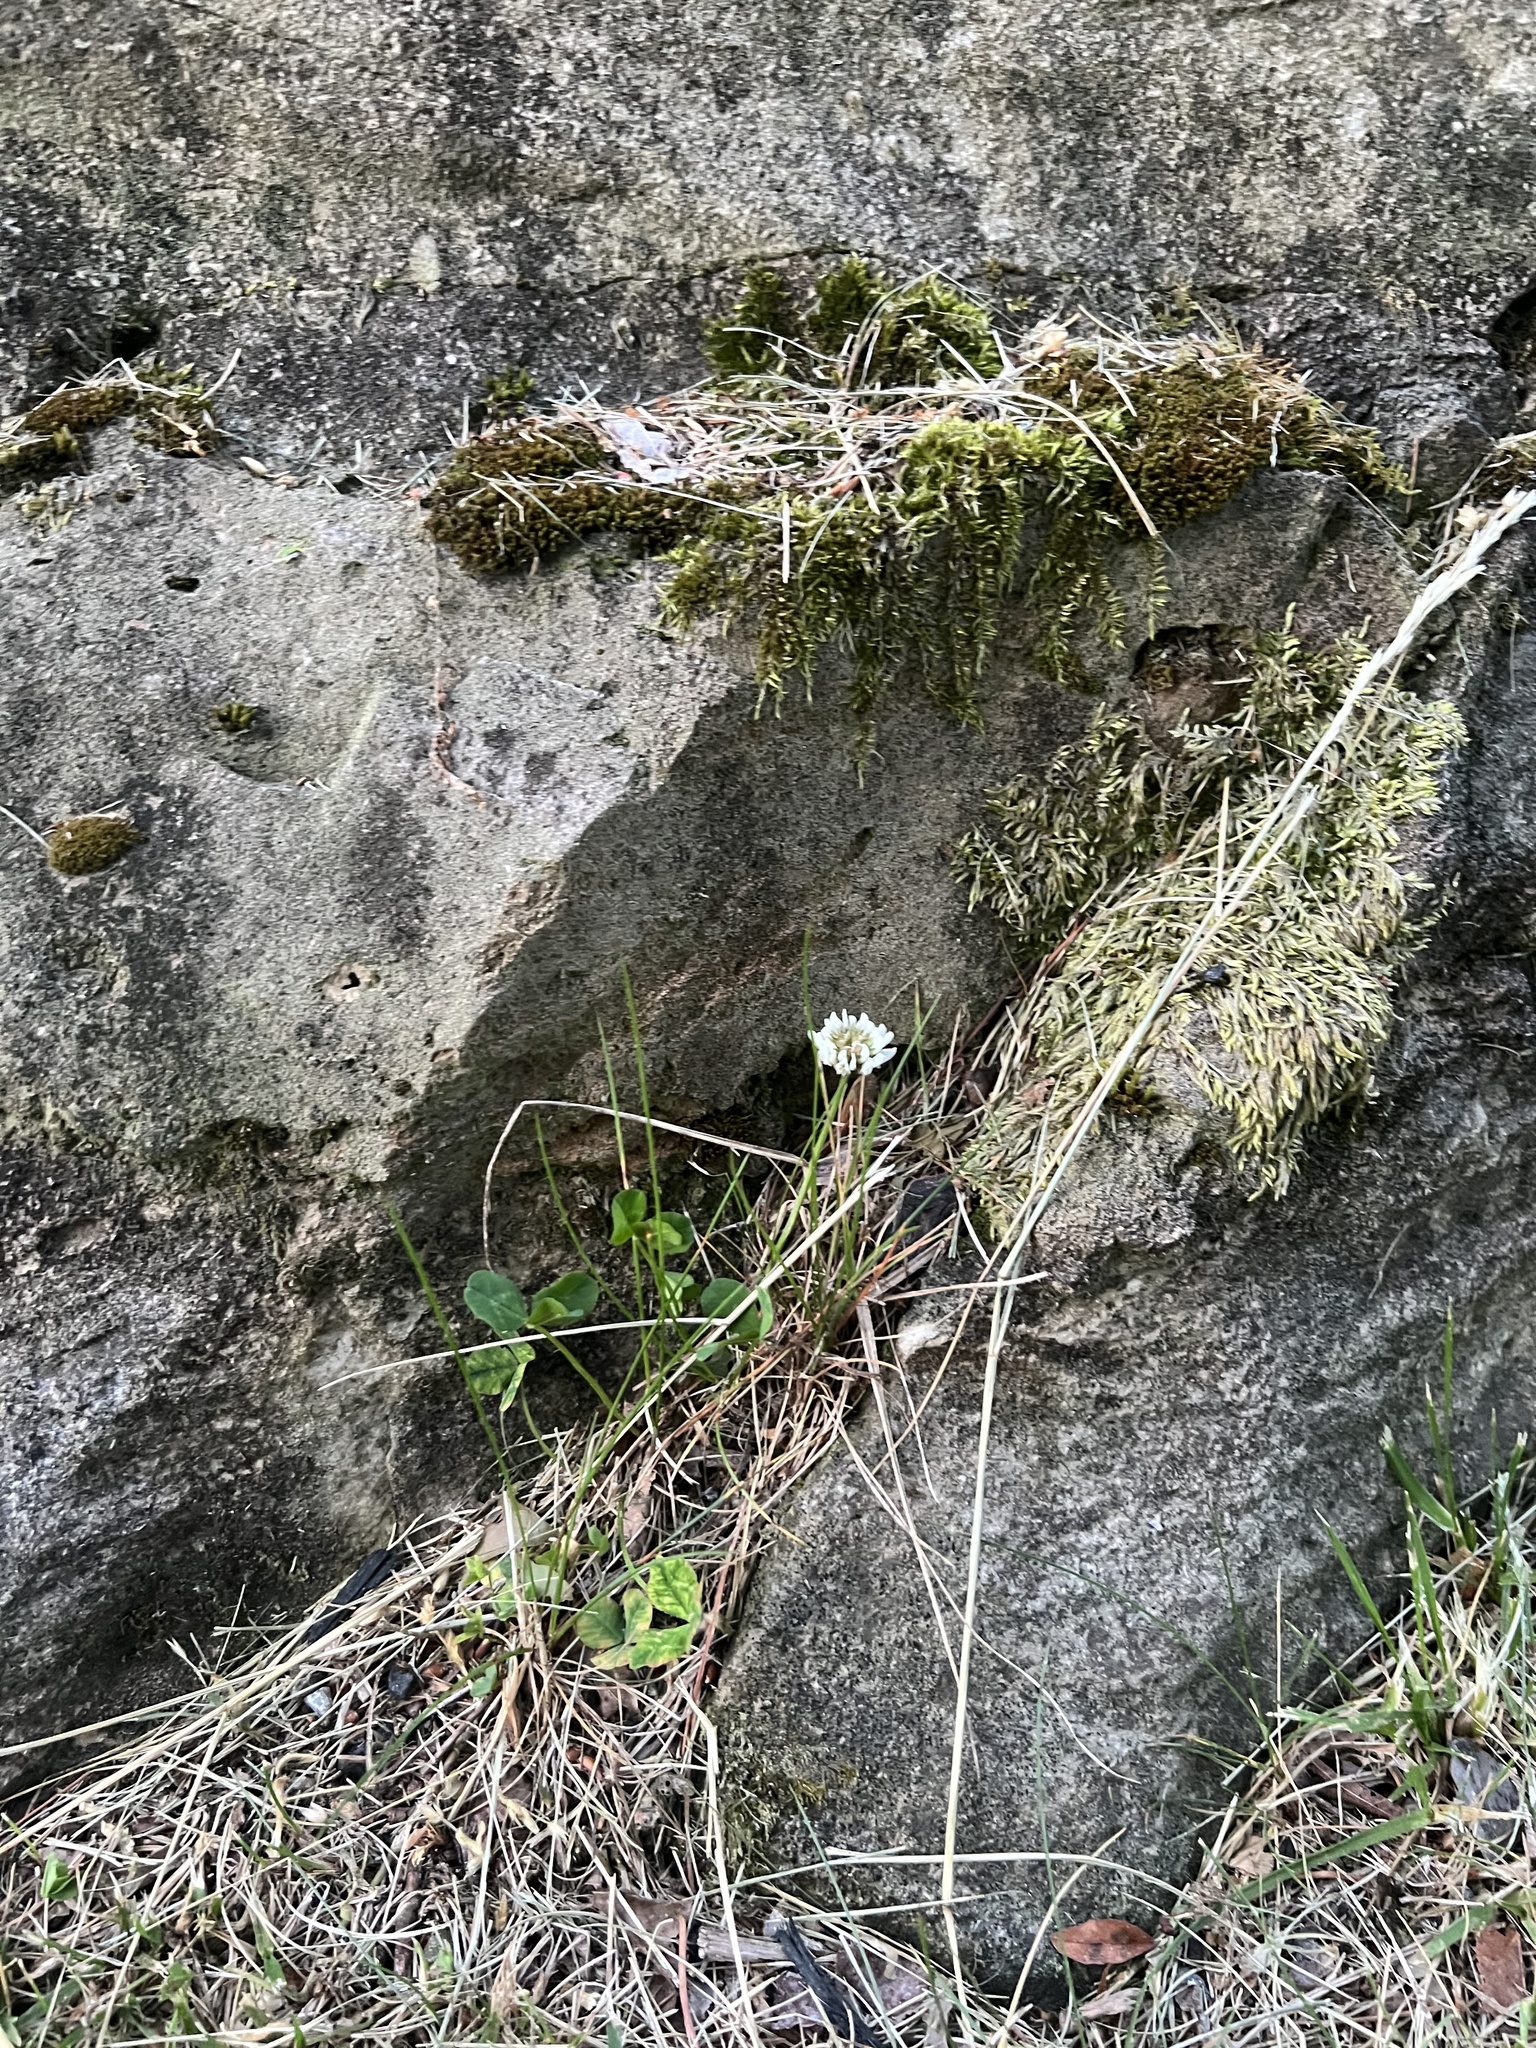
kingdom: Plantae
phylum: Tracheophyta
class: Magnoliopsida
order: Fabales
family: Fabaceae
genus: Trifolium
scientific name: Trifolium repens
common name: White clover
